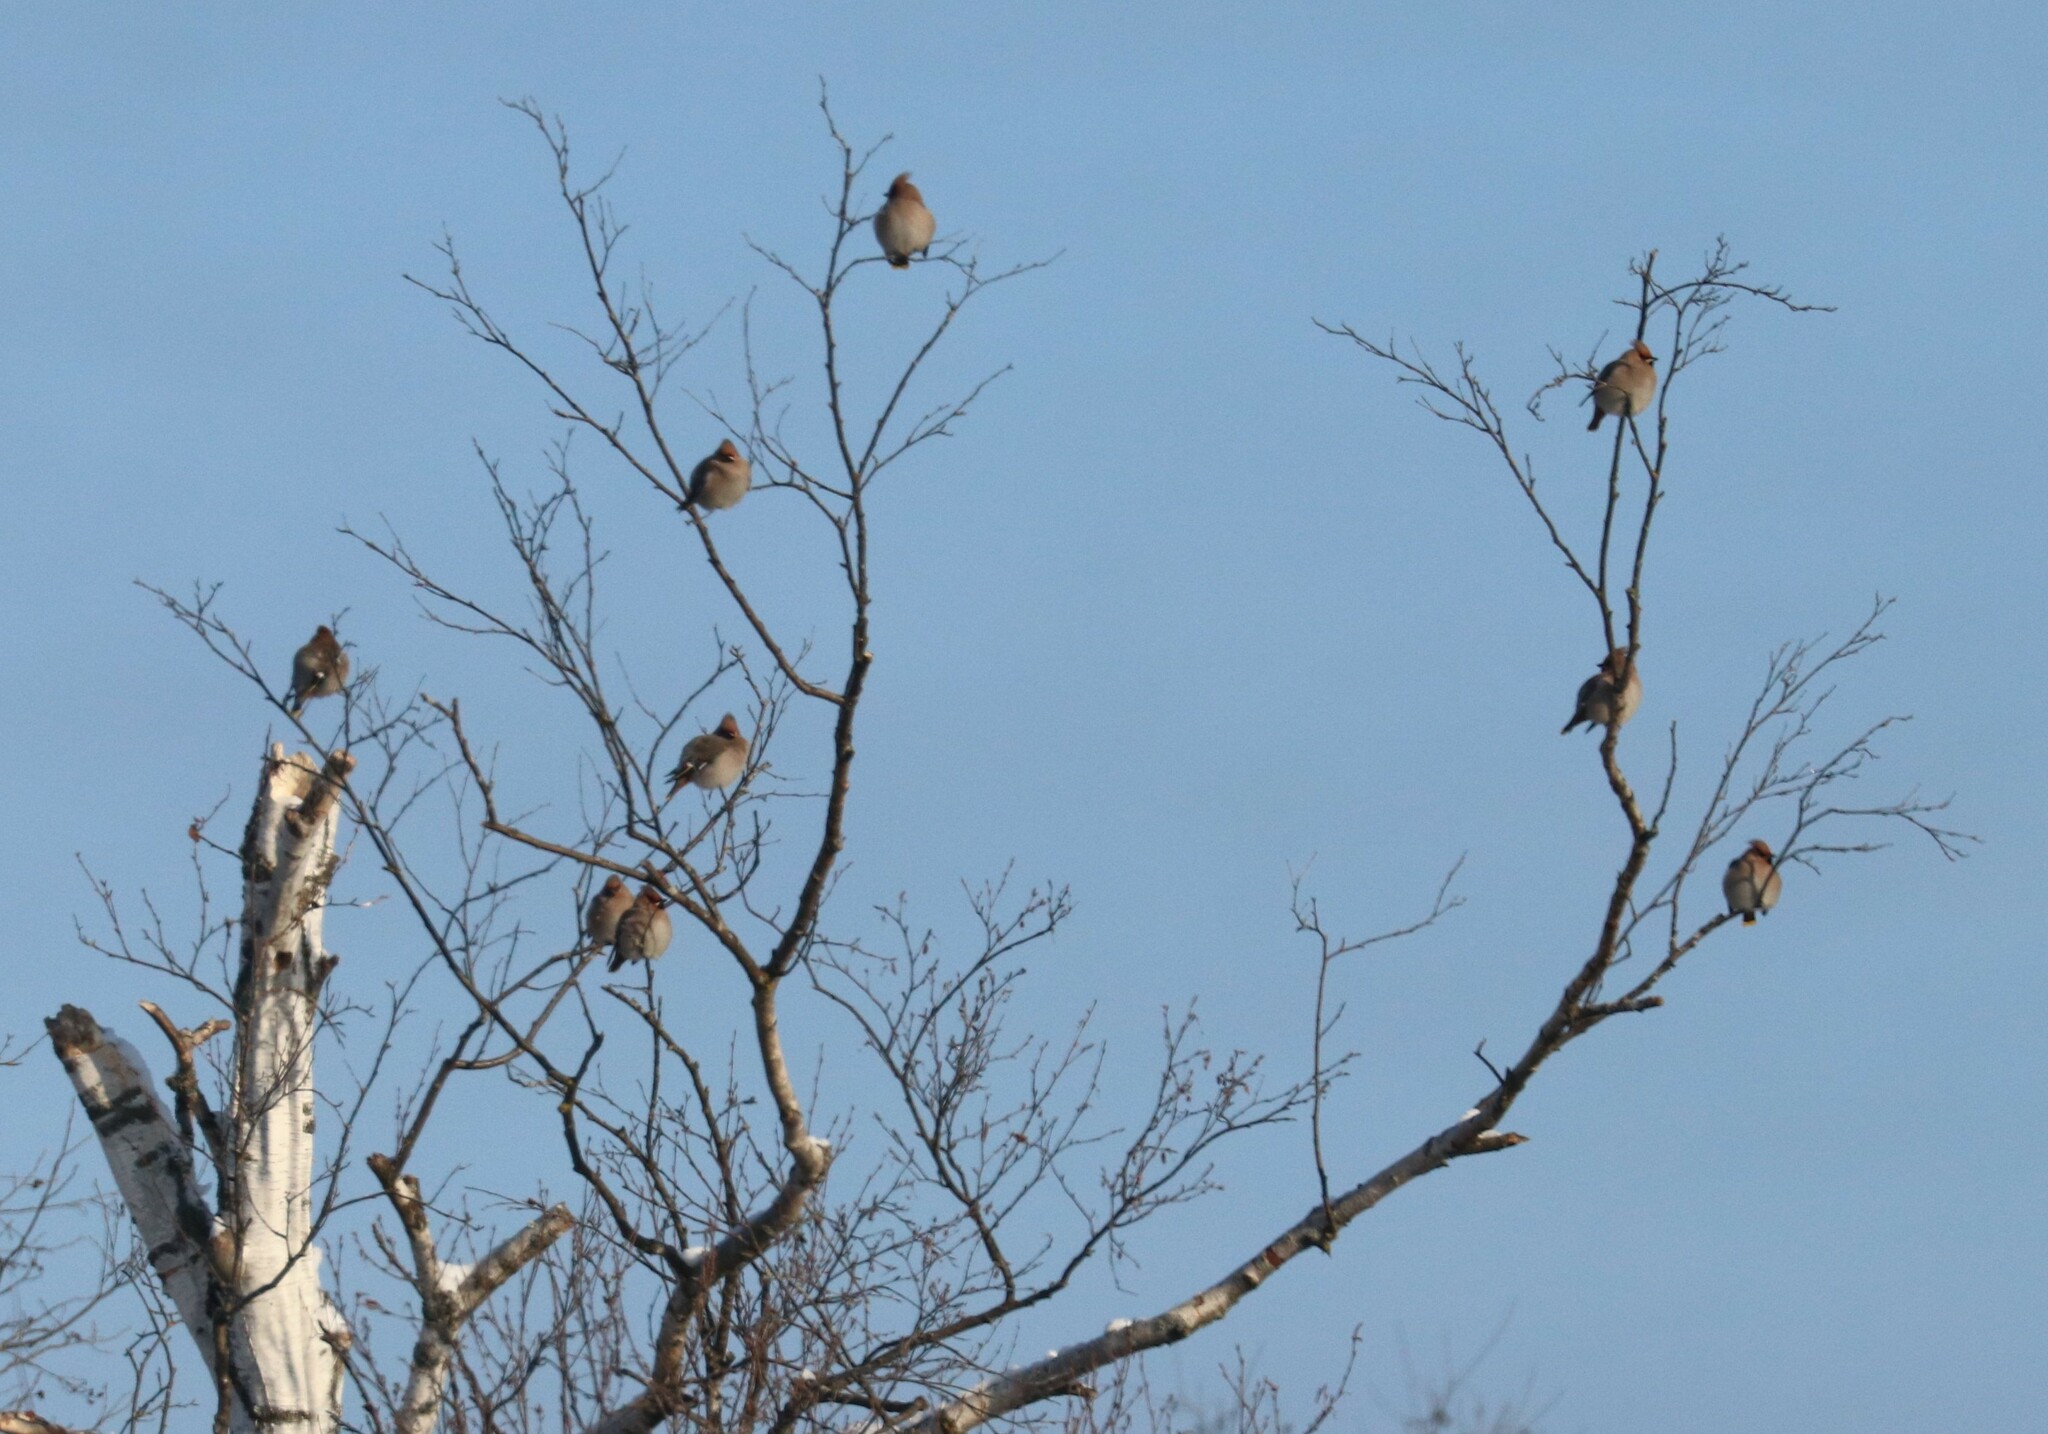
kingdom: Animalia
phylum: Chordata
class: Aves
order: Passeriformes
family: Bombycillidae
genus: Bombycilla
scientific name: Bombycilla garrulus
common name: Bohemian waxwing
